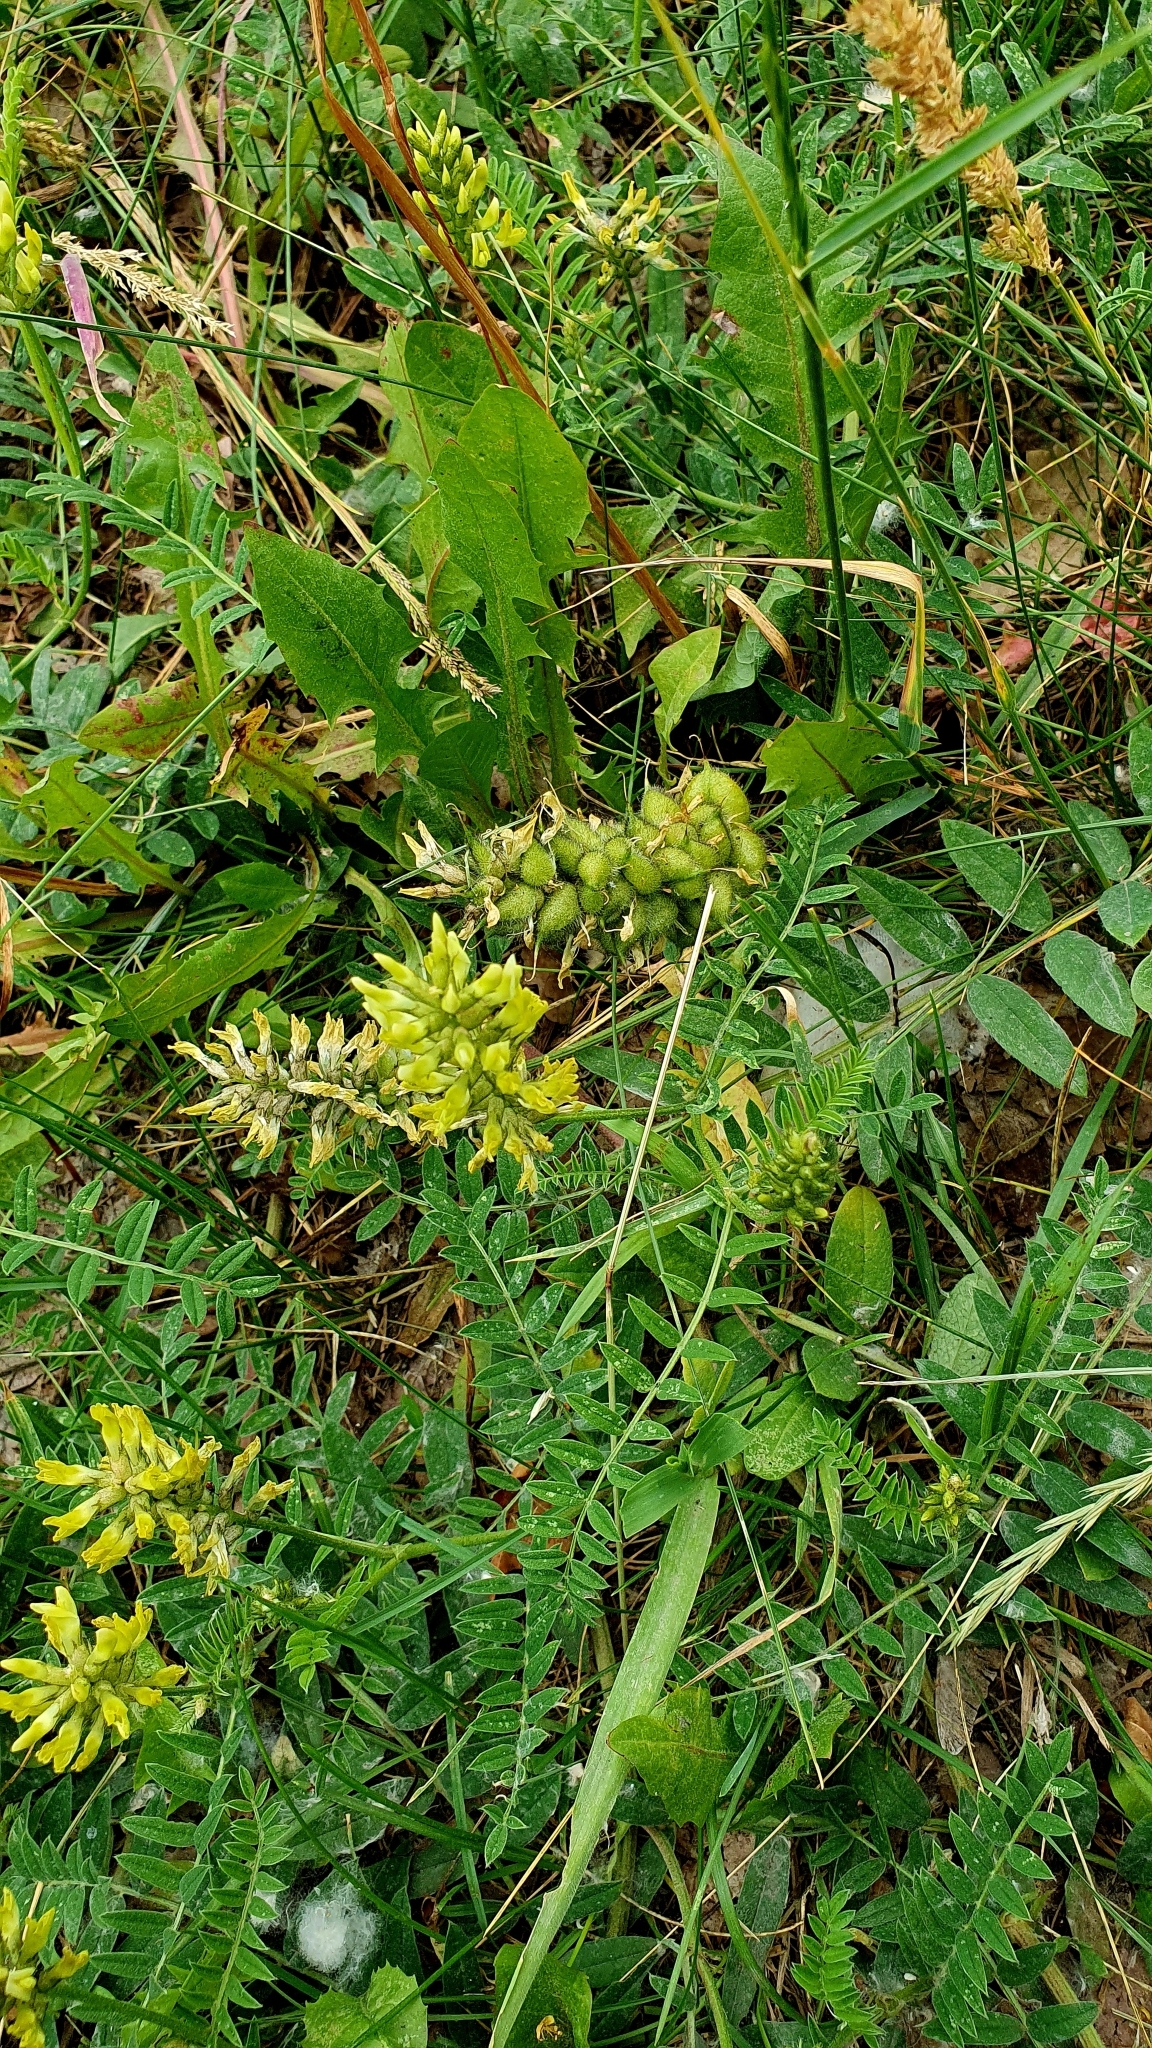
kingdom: Plantae
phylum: Tracheophyta
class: Magnoliopsida
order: Fabales
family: Fabaceae
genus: Astragalus
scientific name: Astragalus cicer
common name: Chick-pea milk-vetch
